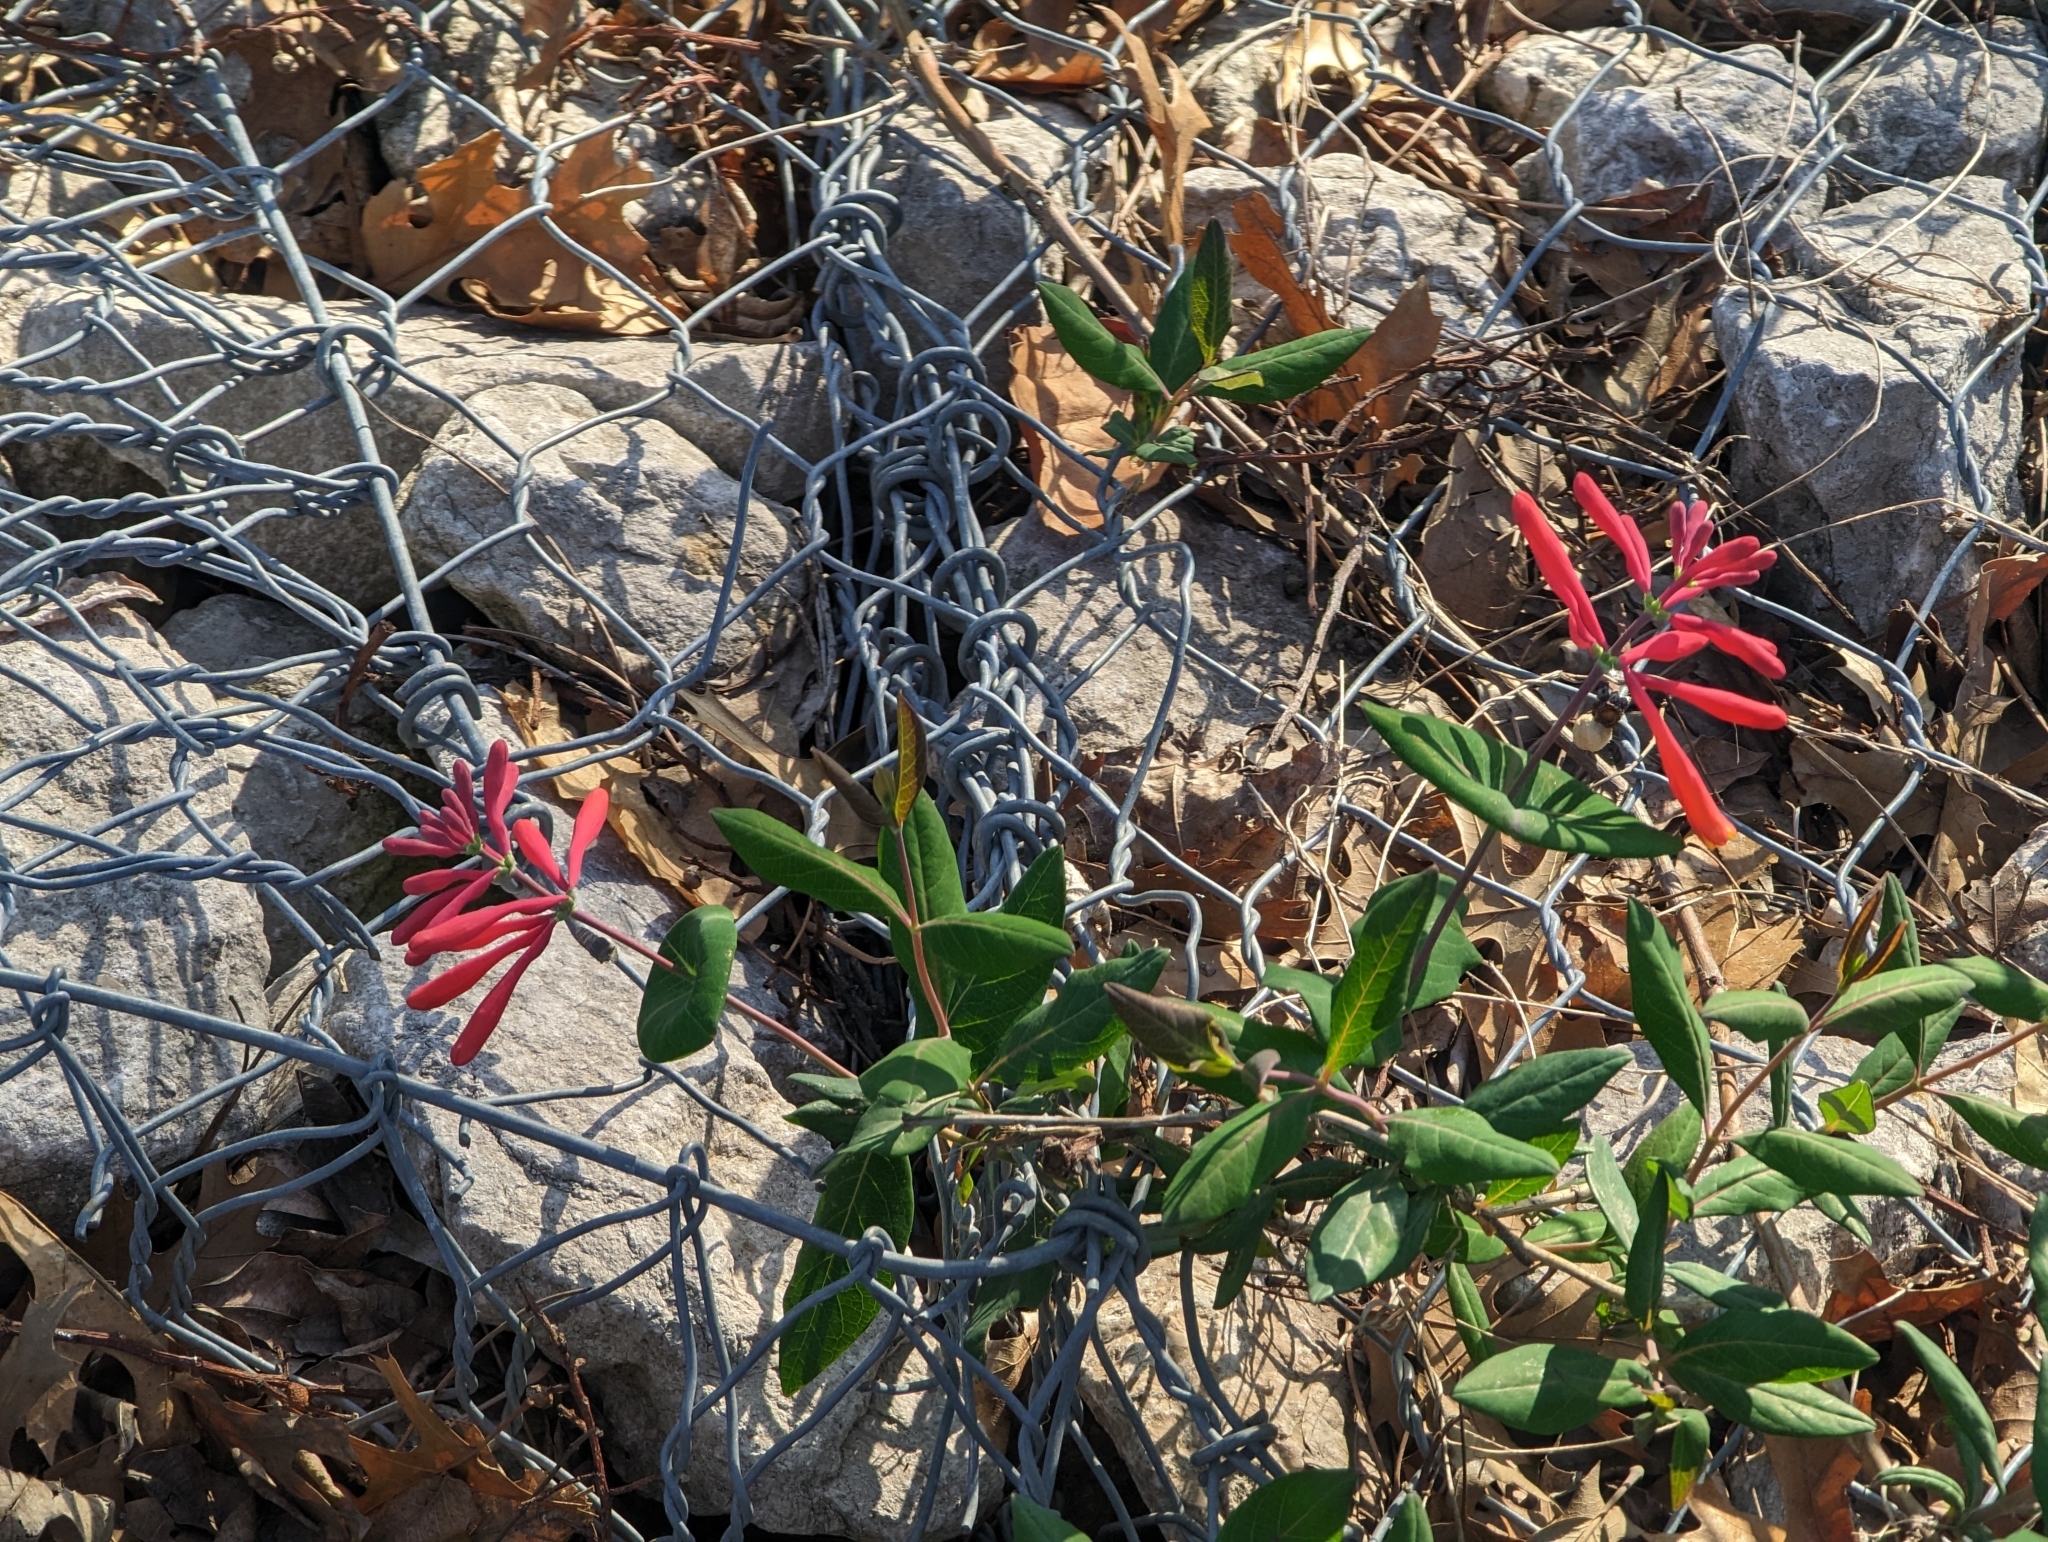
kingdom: Plantae
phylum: Tracheophyta
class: Magnoliopsida
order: Dipsacales
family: Caprifoliaceae
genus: Lonicera
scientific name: Lonicera sempervirens
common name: Coral honeysuckle
